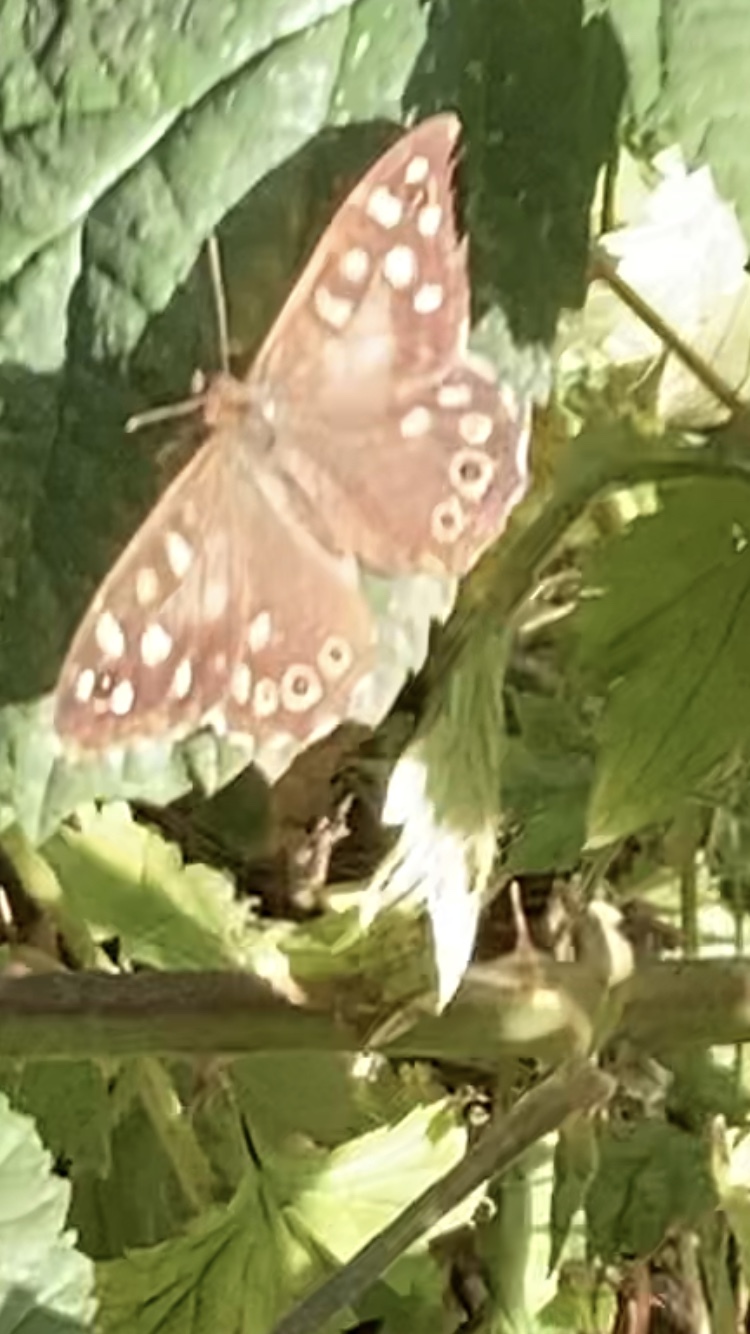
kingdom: Animalia
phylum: Arthropoda
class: Insecta
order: Lepidoptera
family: Nymphalidae
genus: Pararge
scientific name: Pararge aegeria
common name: Speckled wood
